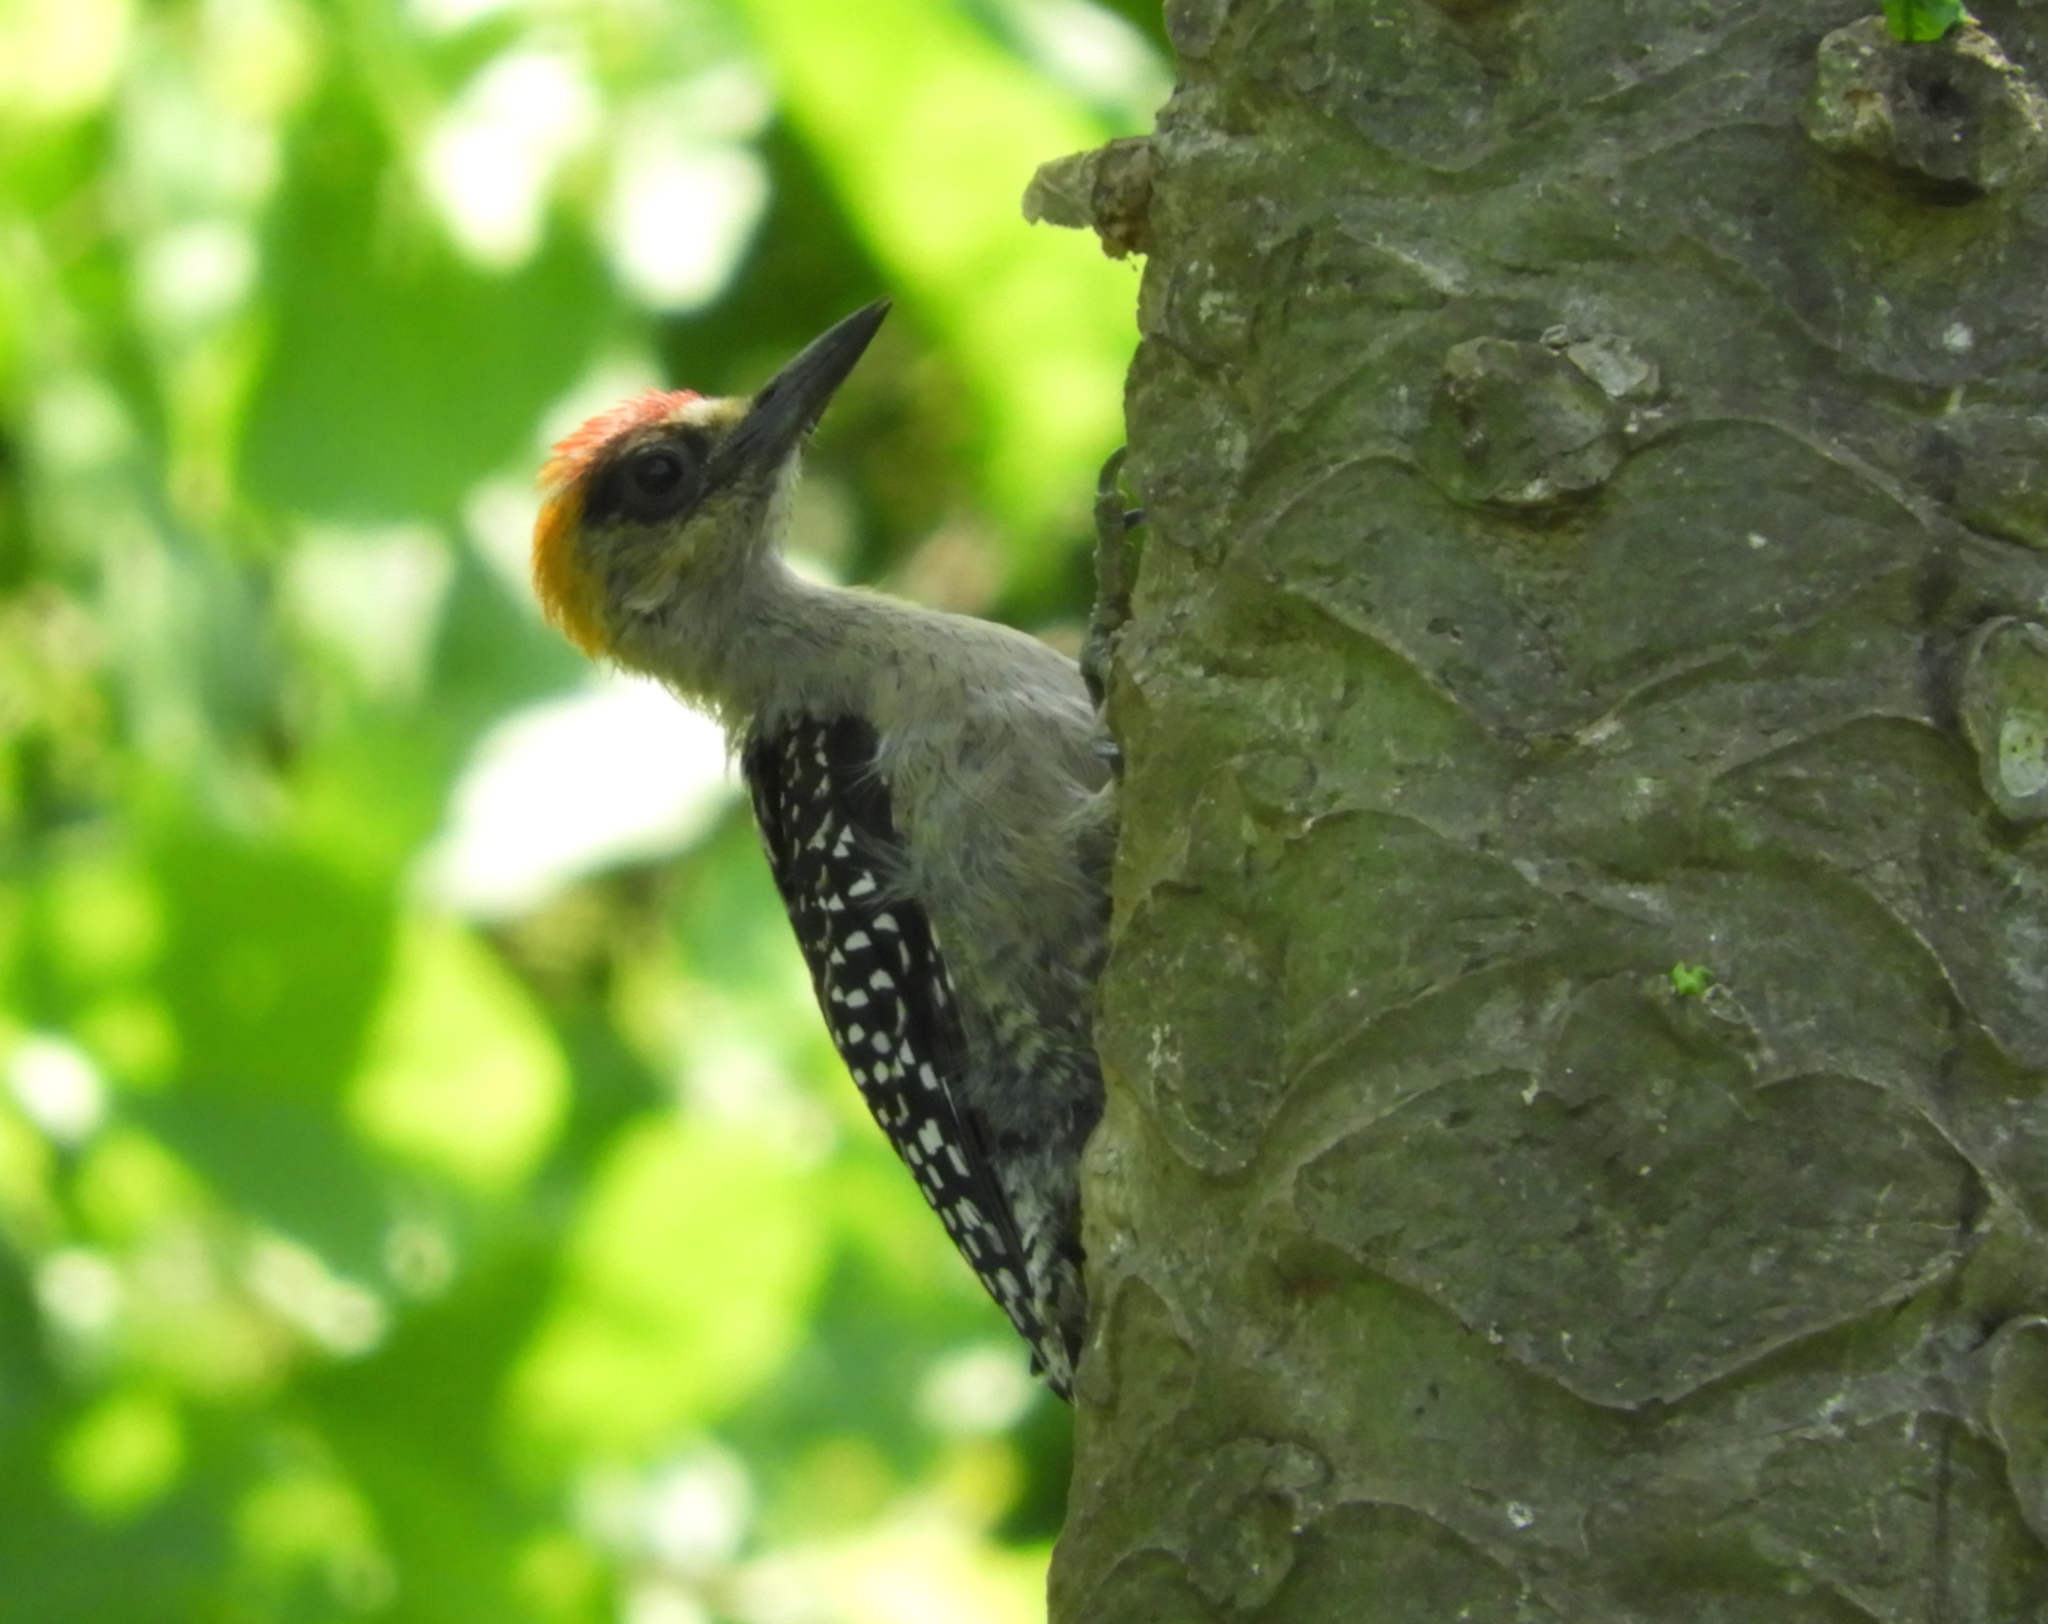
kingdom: Animalia
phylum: Chordata
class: Aves
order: Piciformes
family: Picidae
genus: Melanerpes
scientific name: Melanerpes chrysogenys
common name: Golden-cheeked woodpecker
